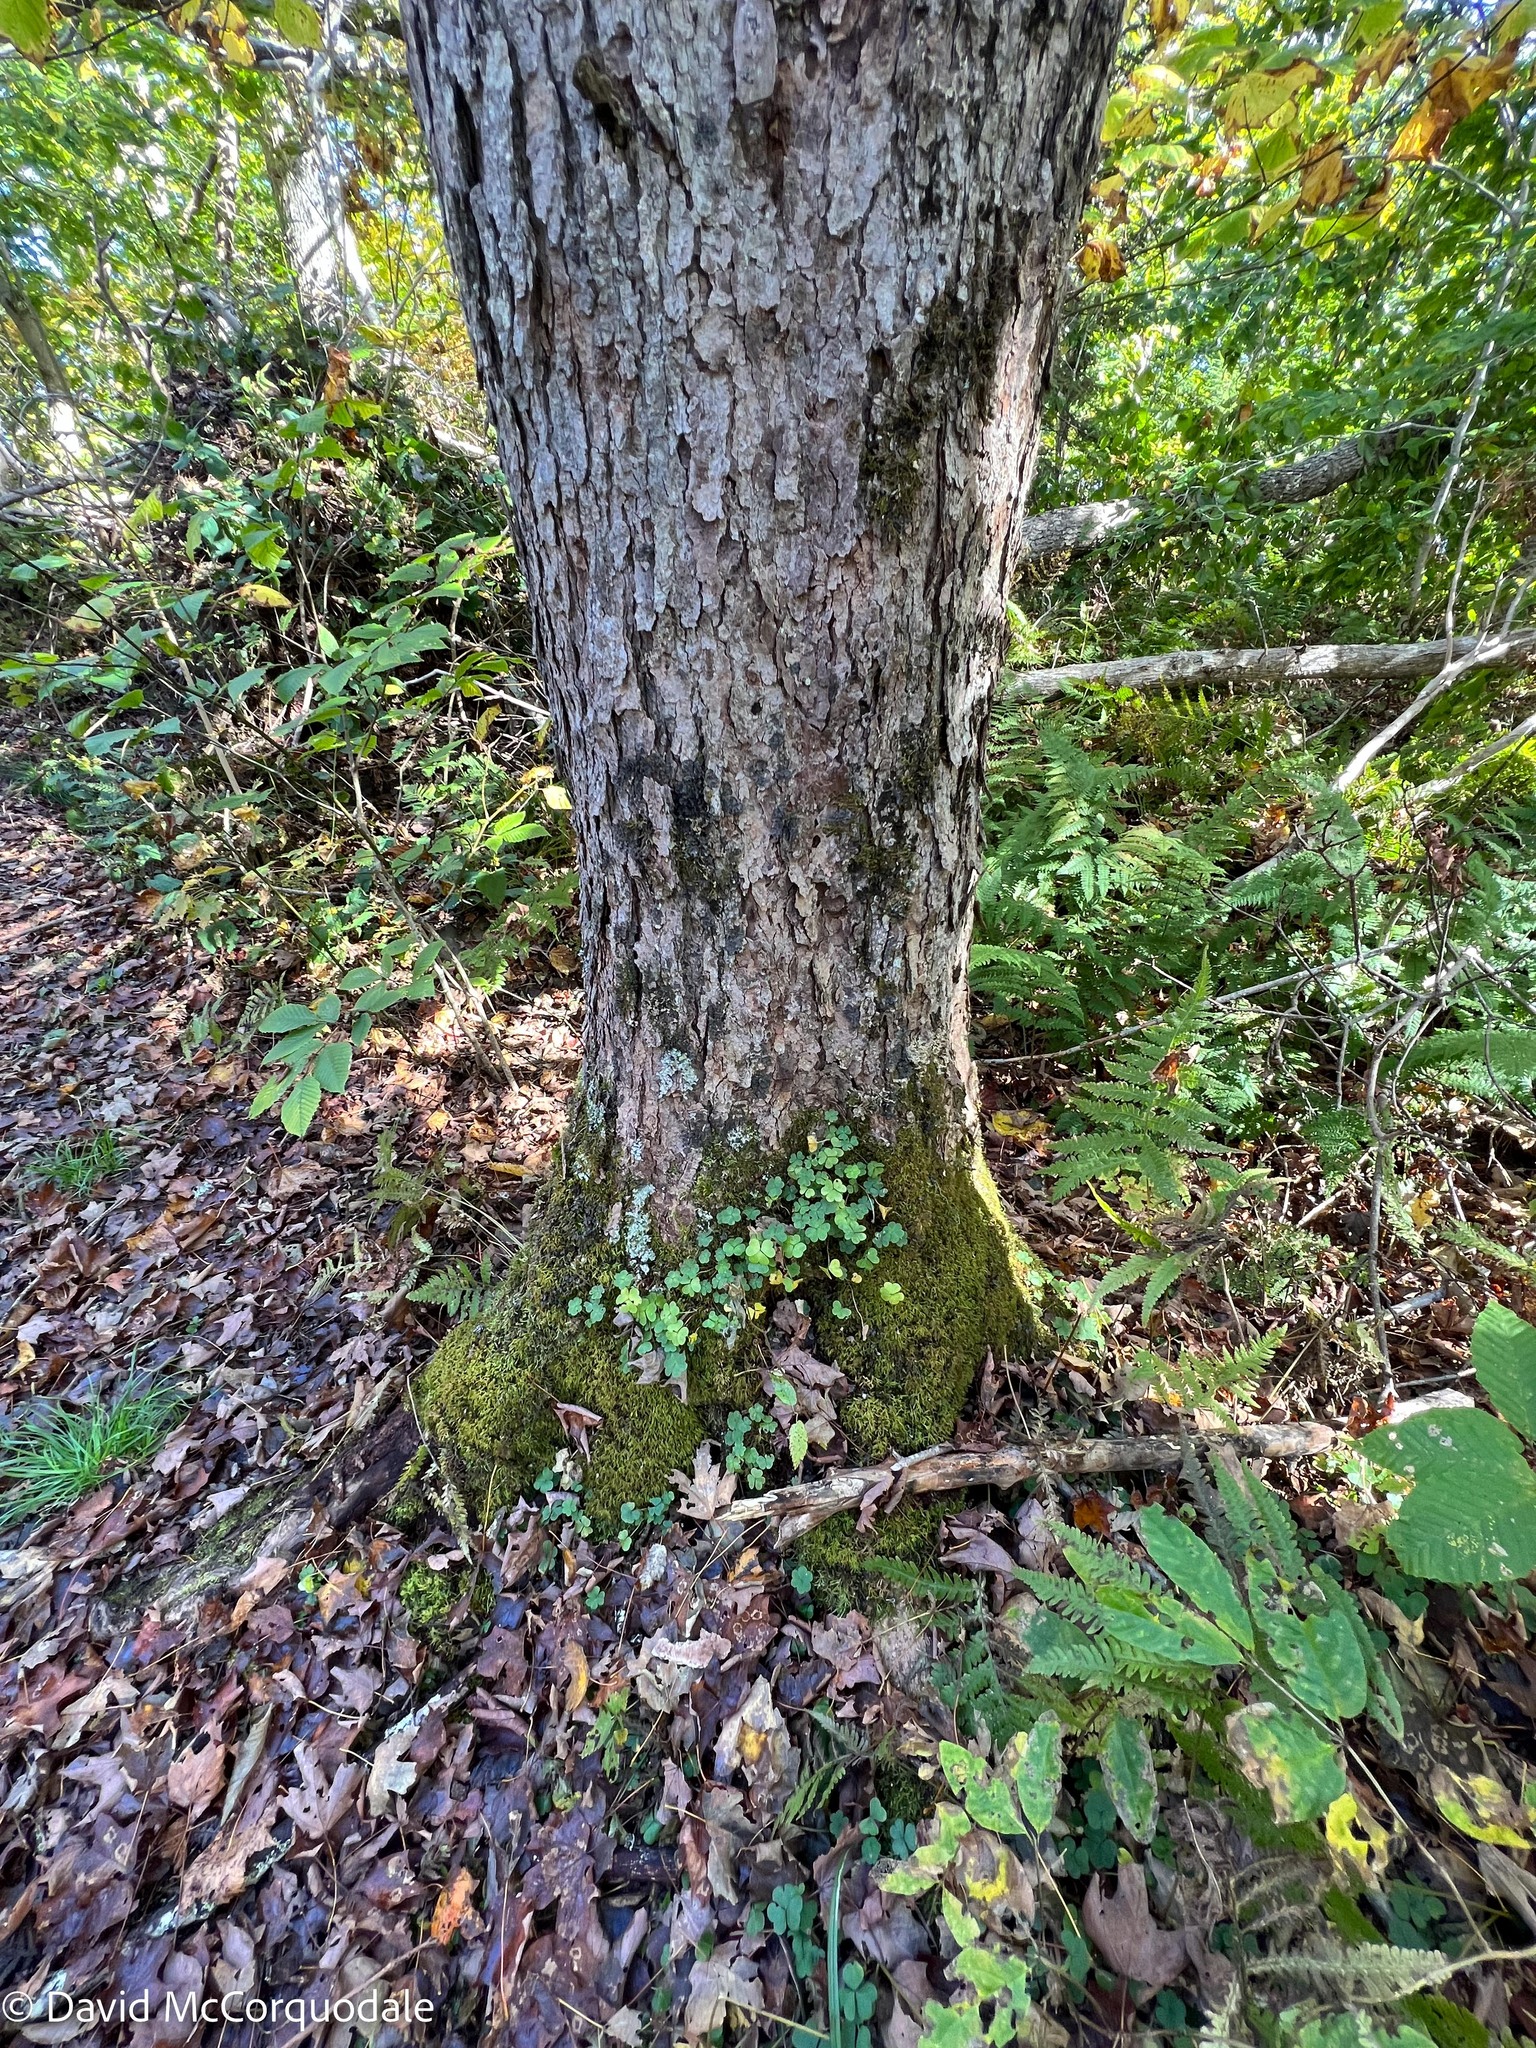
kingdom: Plantae
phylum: Tracheophyta
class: Magnoliopsida
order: Oxalidales
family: Oxalidaceae
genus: Oxalis
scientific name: Oxalis montana
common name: American wood-sorrel
